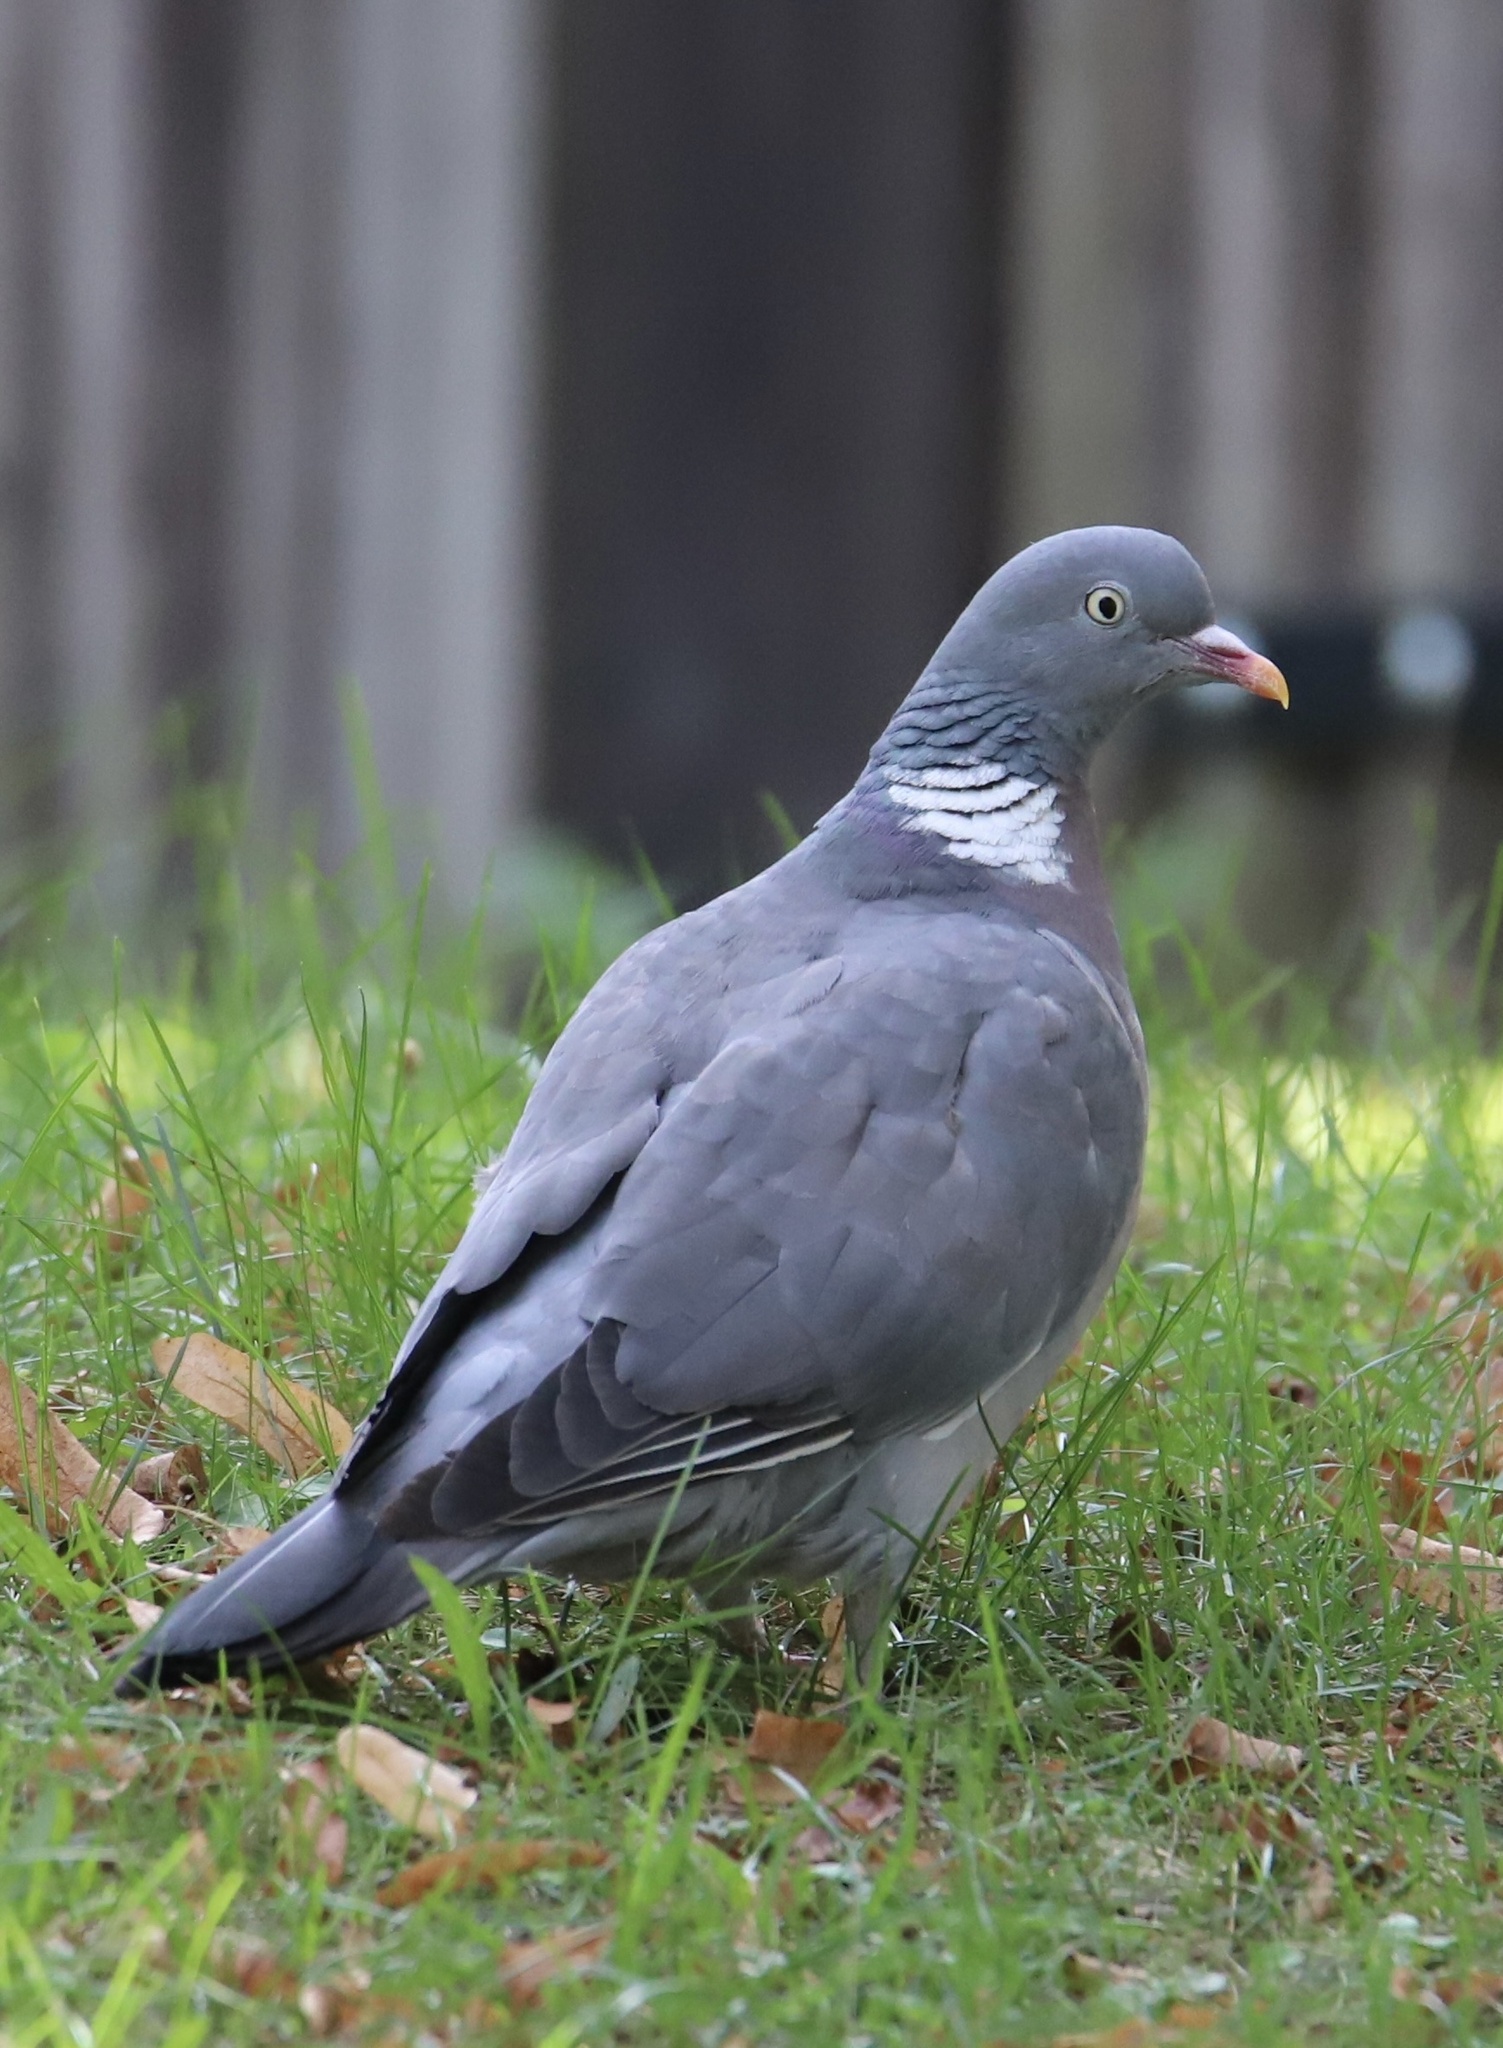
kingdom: Animalia
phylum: Chordata
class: Aves
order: Columbiformes
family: Columbidae
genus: Columba
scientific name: Columba palumbus
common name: Common wood pigeon
